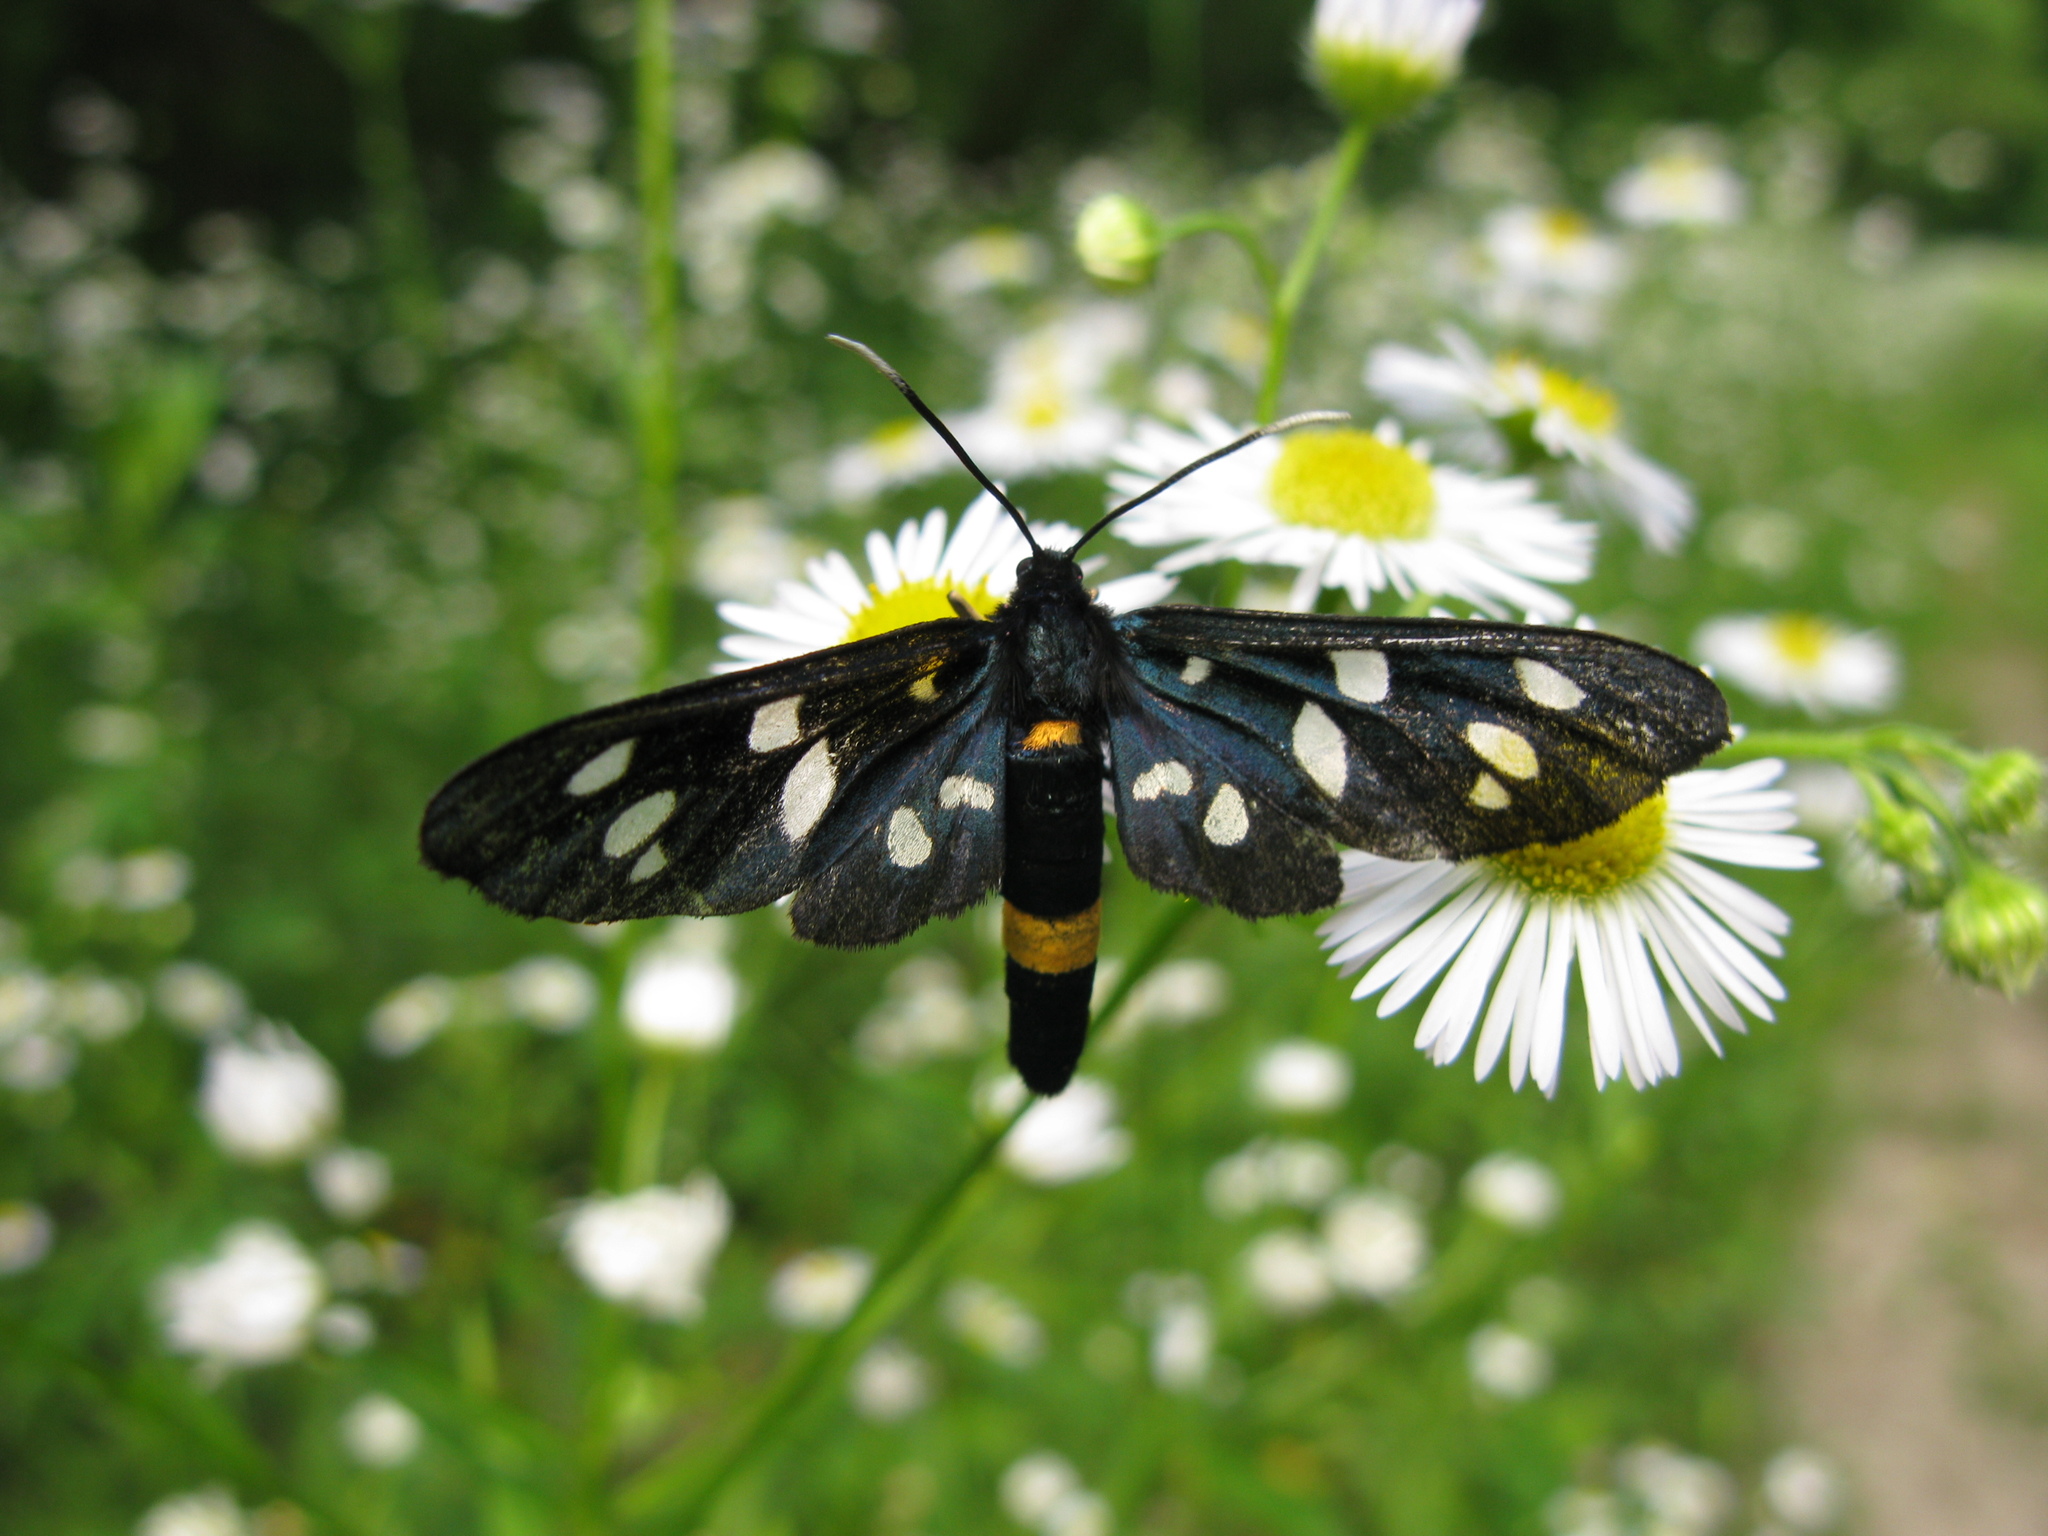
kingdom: Animalia
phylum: Arthropoda
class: Insecta
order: Lepidoptera
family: Erebidae
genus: Amata
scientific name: Amata phegea
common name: Nine-spotted
